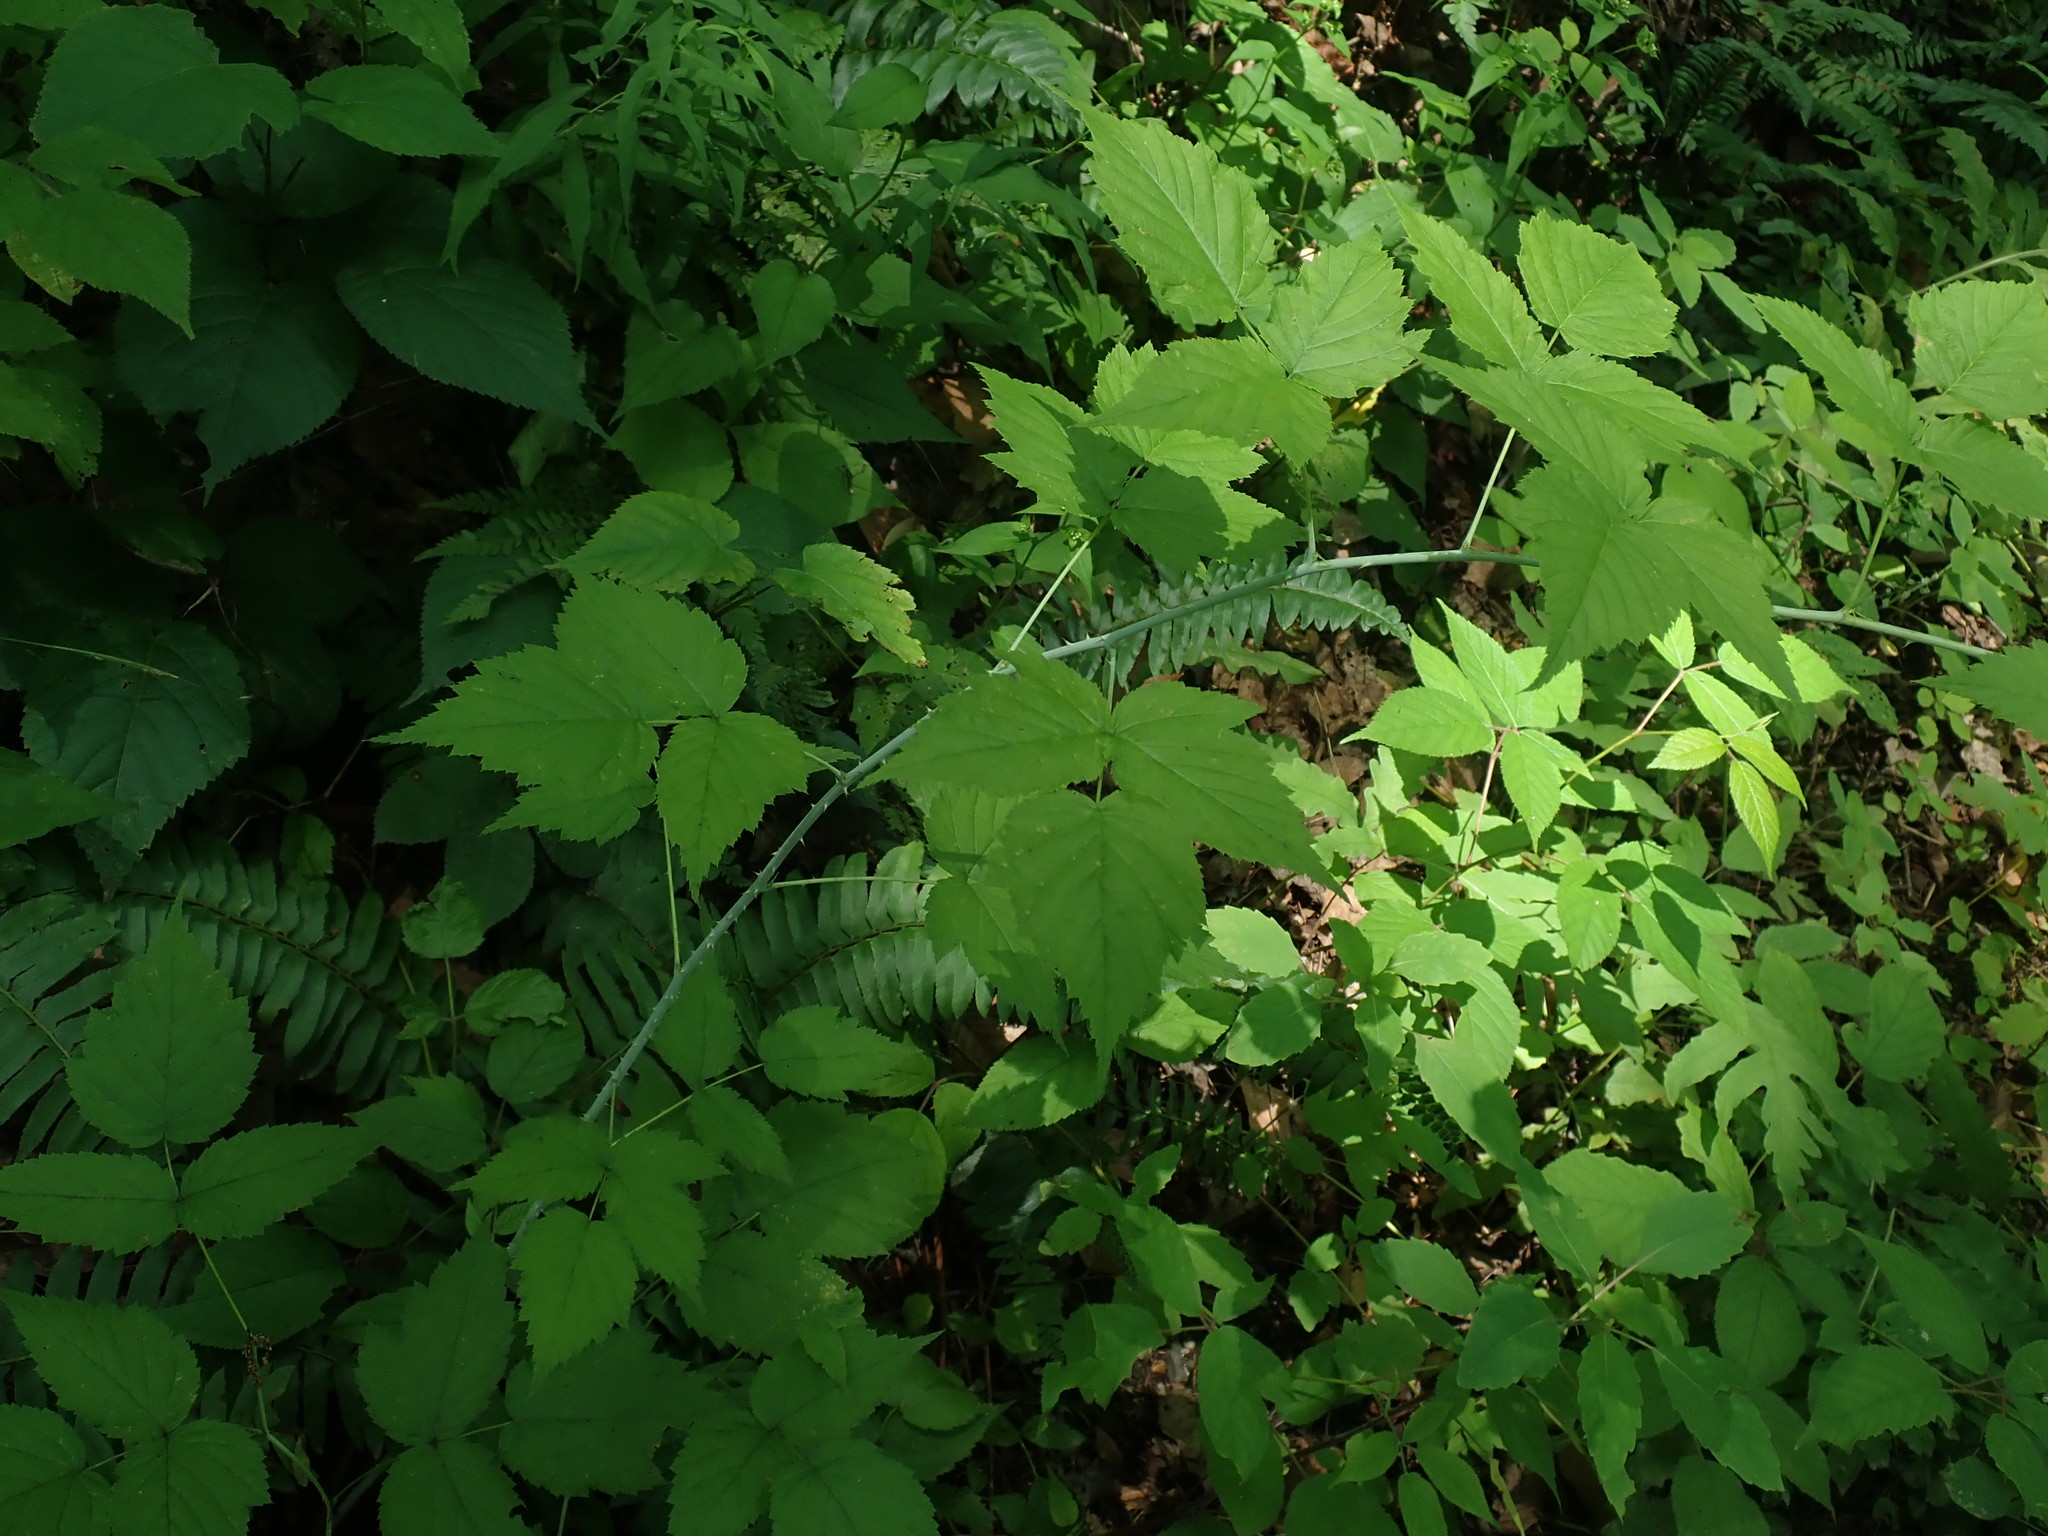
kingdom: Plantae
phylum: Tracheophyta
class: Magnoliopsida
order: Rosales
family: Rosaceae
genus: Rubus
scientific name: Rubus occidentalis
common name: Black raspberry
